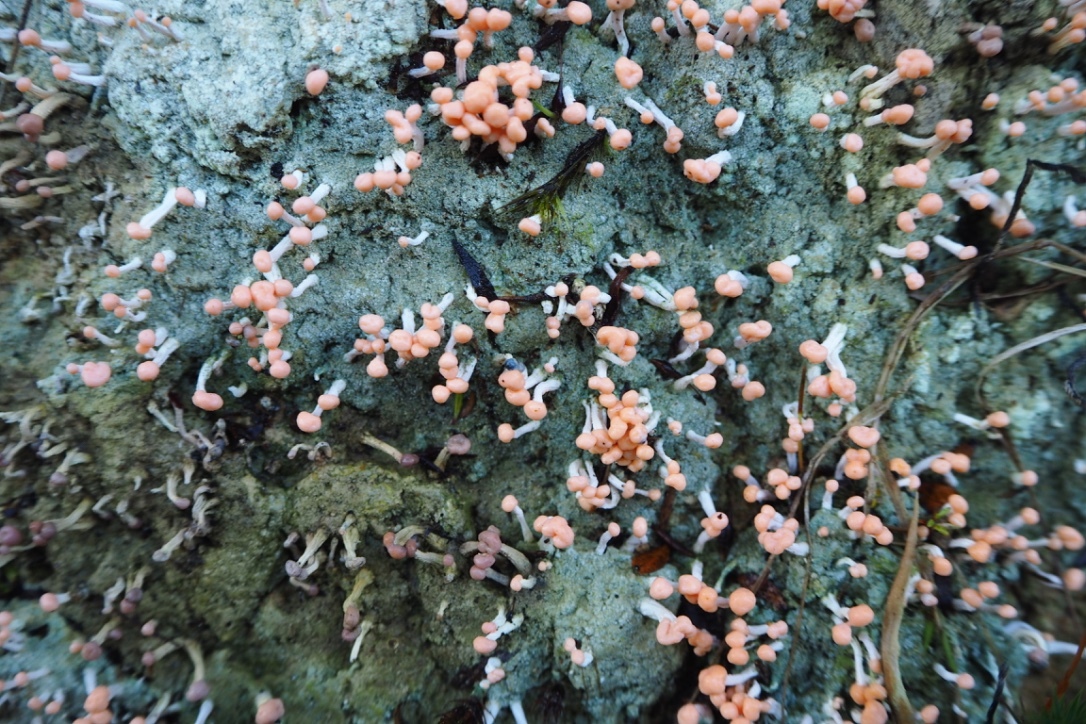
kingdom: Fungi
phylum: Ascomycota
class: Lecanoromycetes
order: Pertusariales
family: Icmadophilaceae
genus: Dibaeis
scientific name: Dibaeis arcuata
